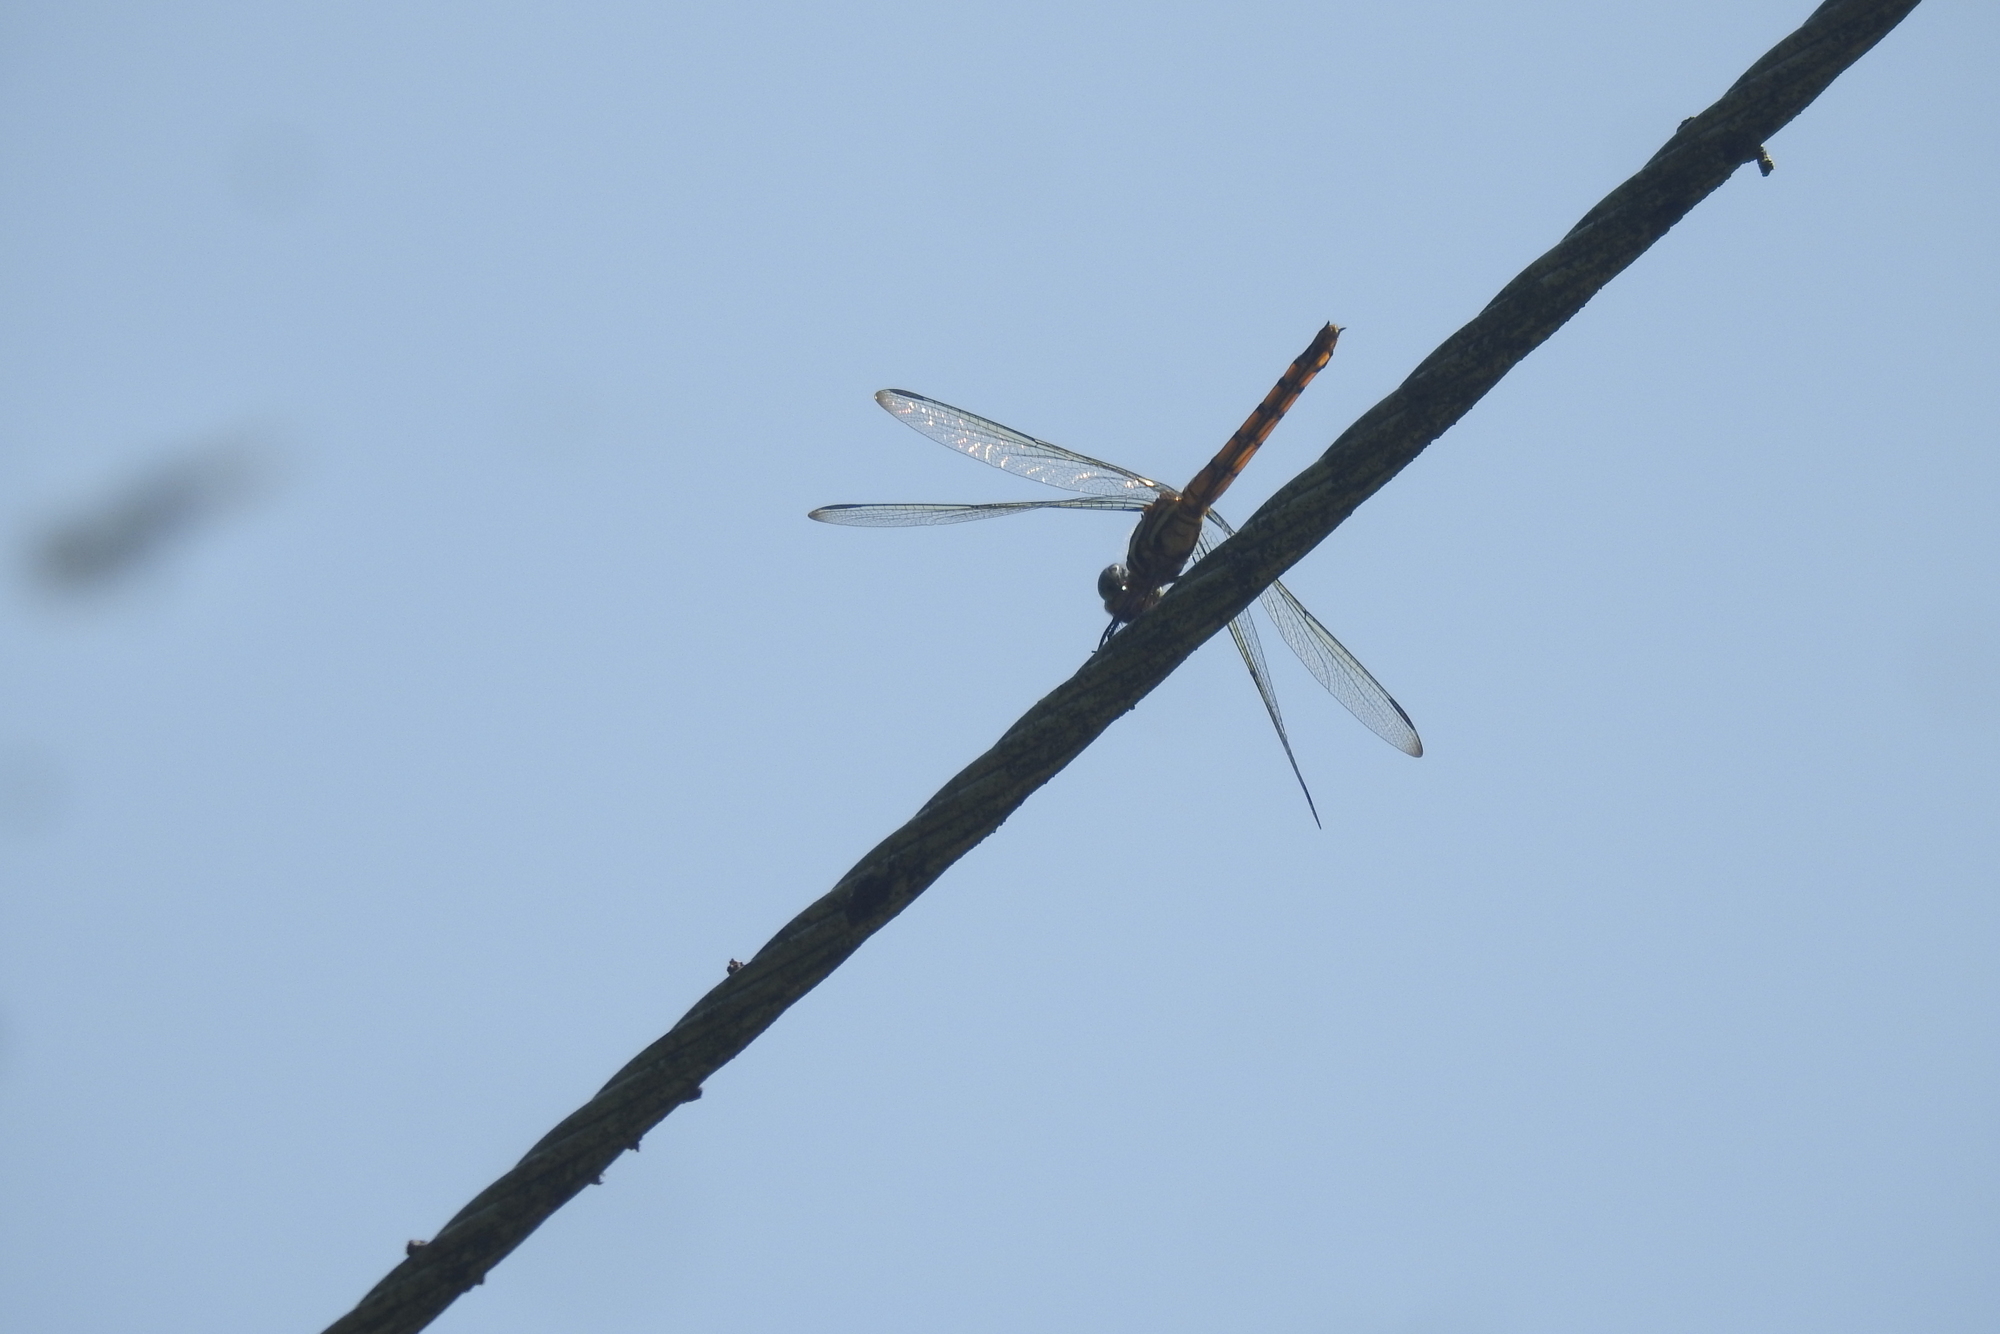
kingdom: Animalia
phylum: Arthropoda
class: Insecta
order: Odonata
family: Libellulidae
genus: Potamarcha
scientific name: Potamarcha congener
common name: Blue chaser
